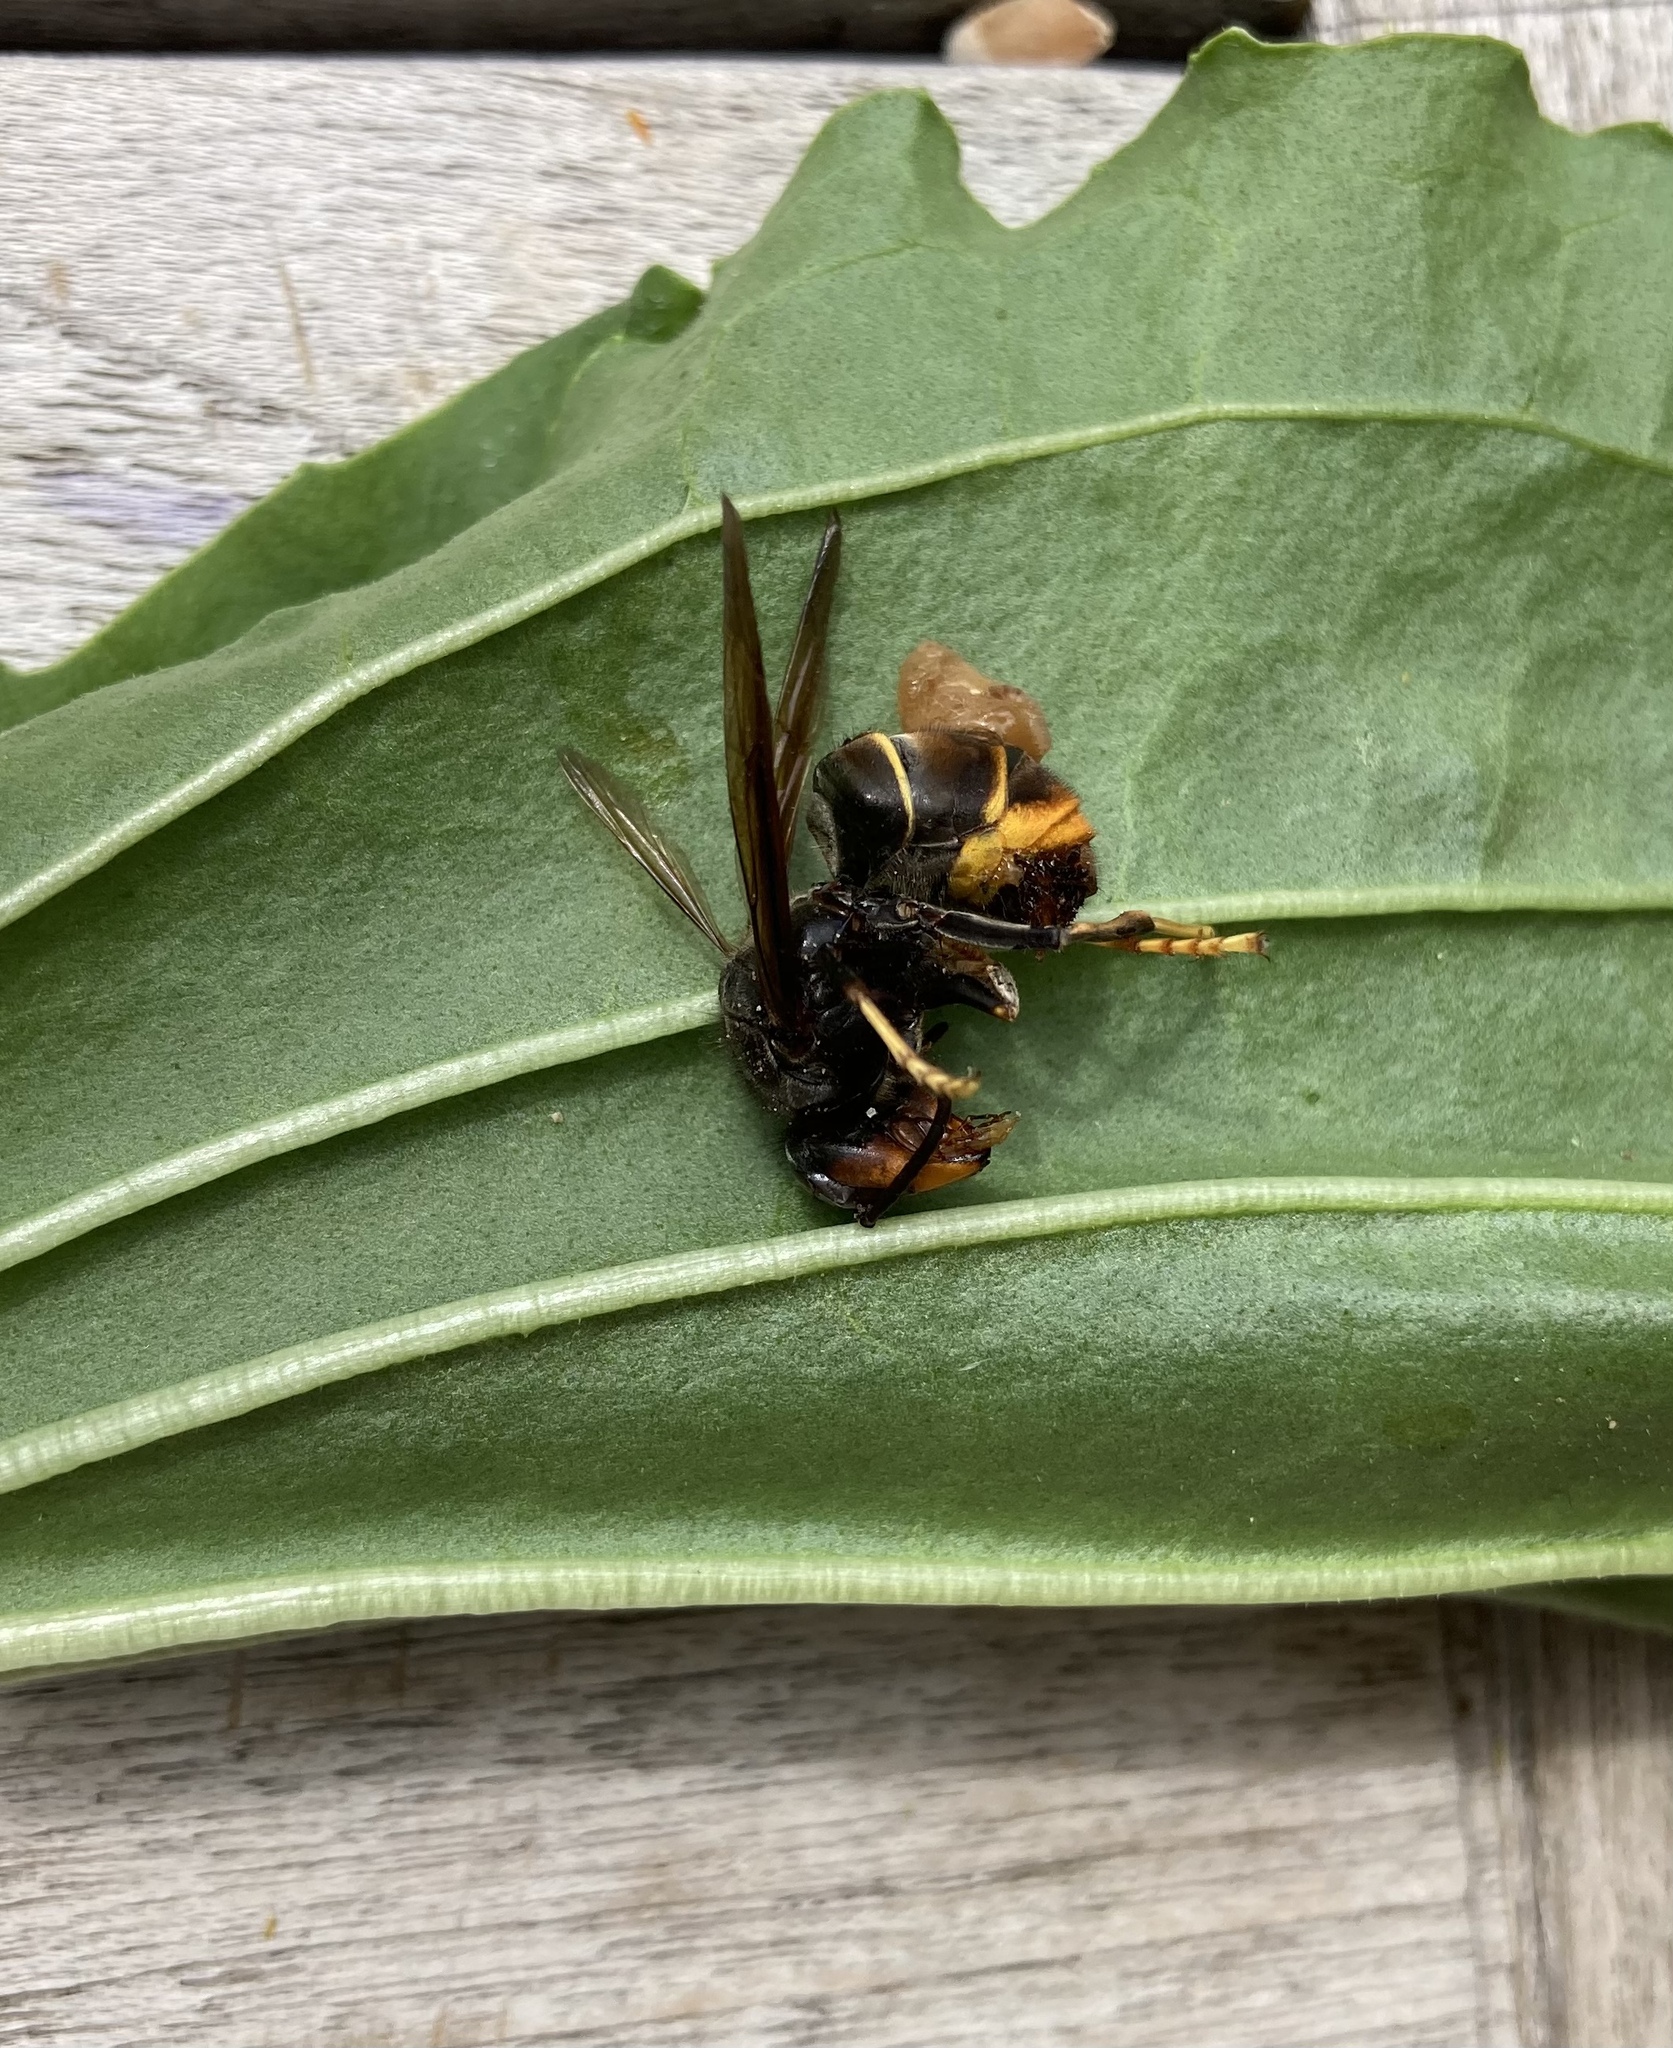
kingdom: Animalia
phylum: Arthropoda
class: Insecta
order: Hymenoptera
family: Vespidae
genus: Vespa
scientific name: Vespa velutina
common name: Asian hornet
